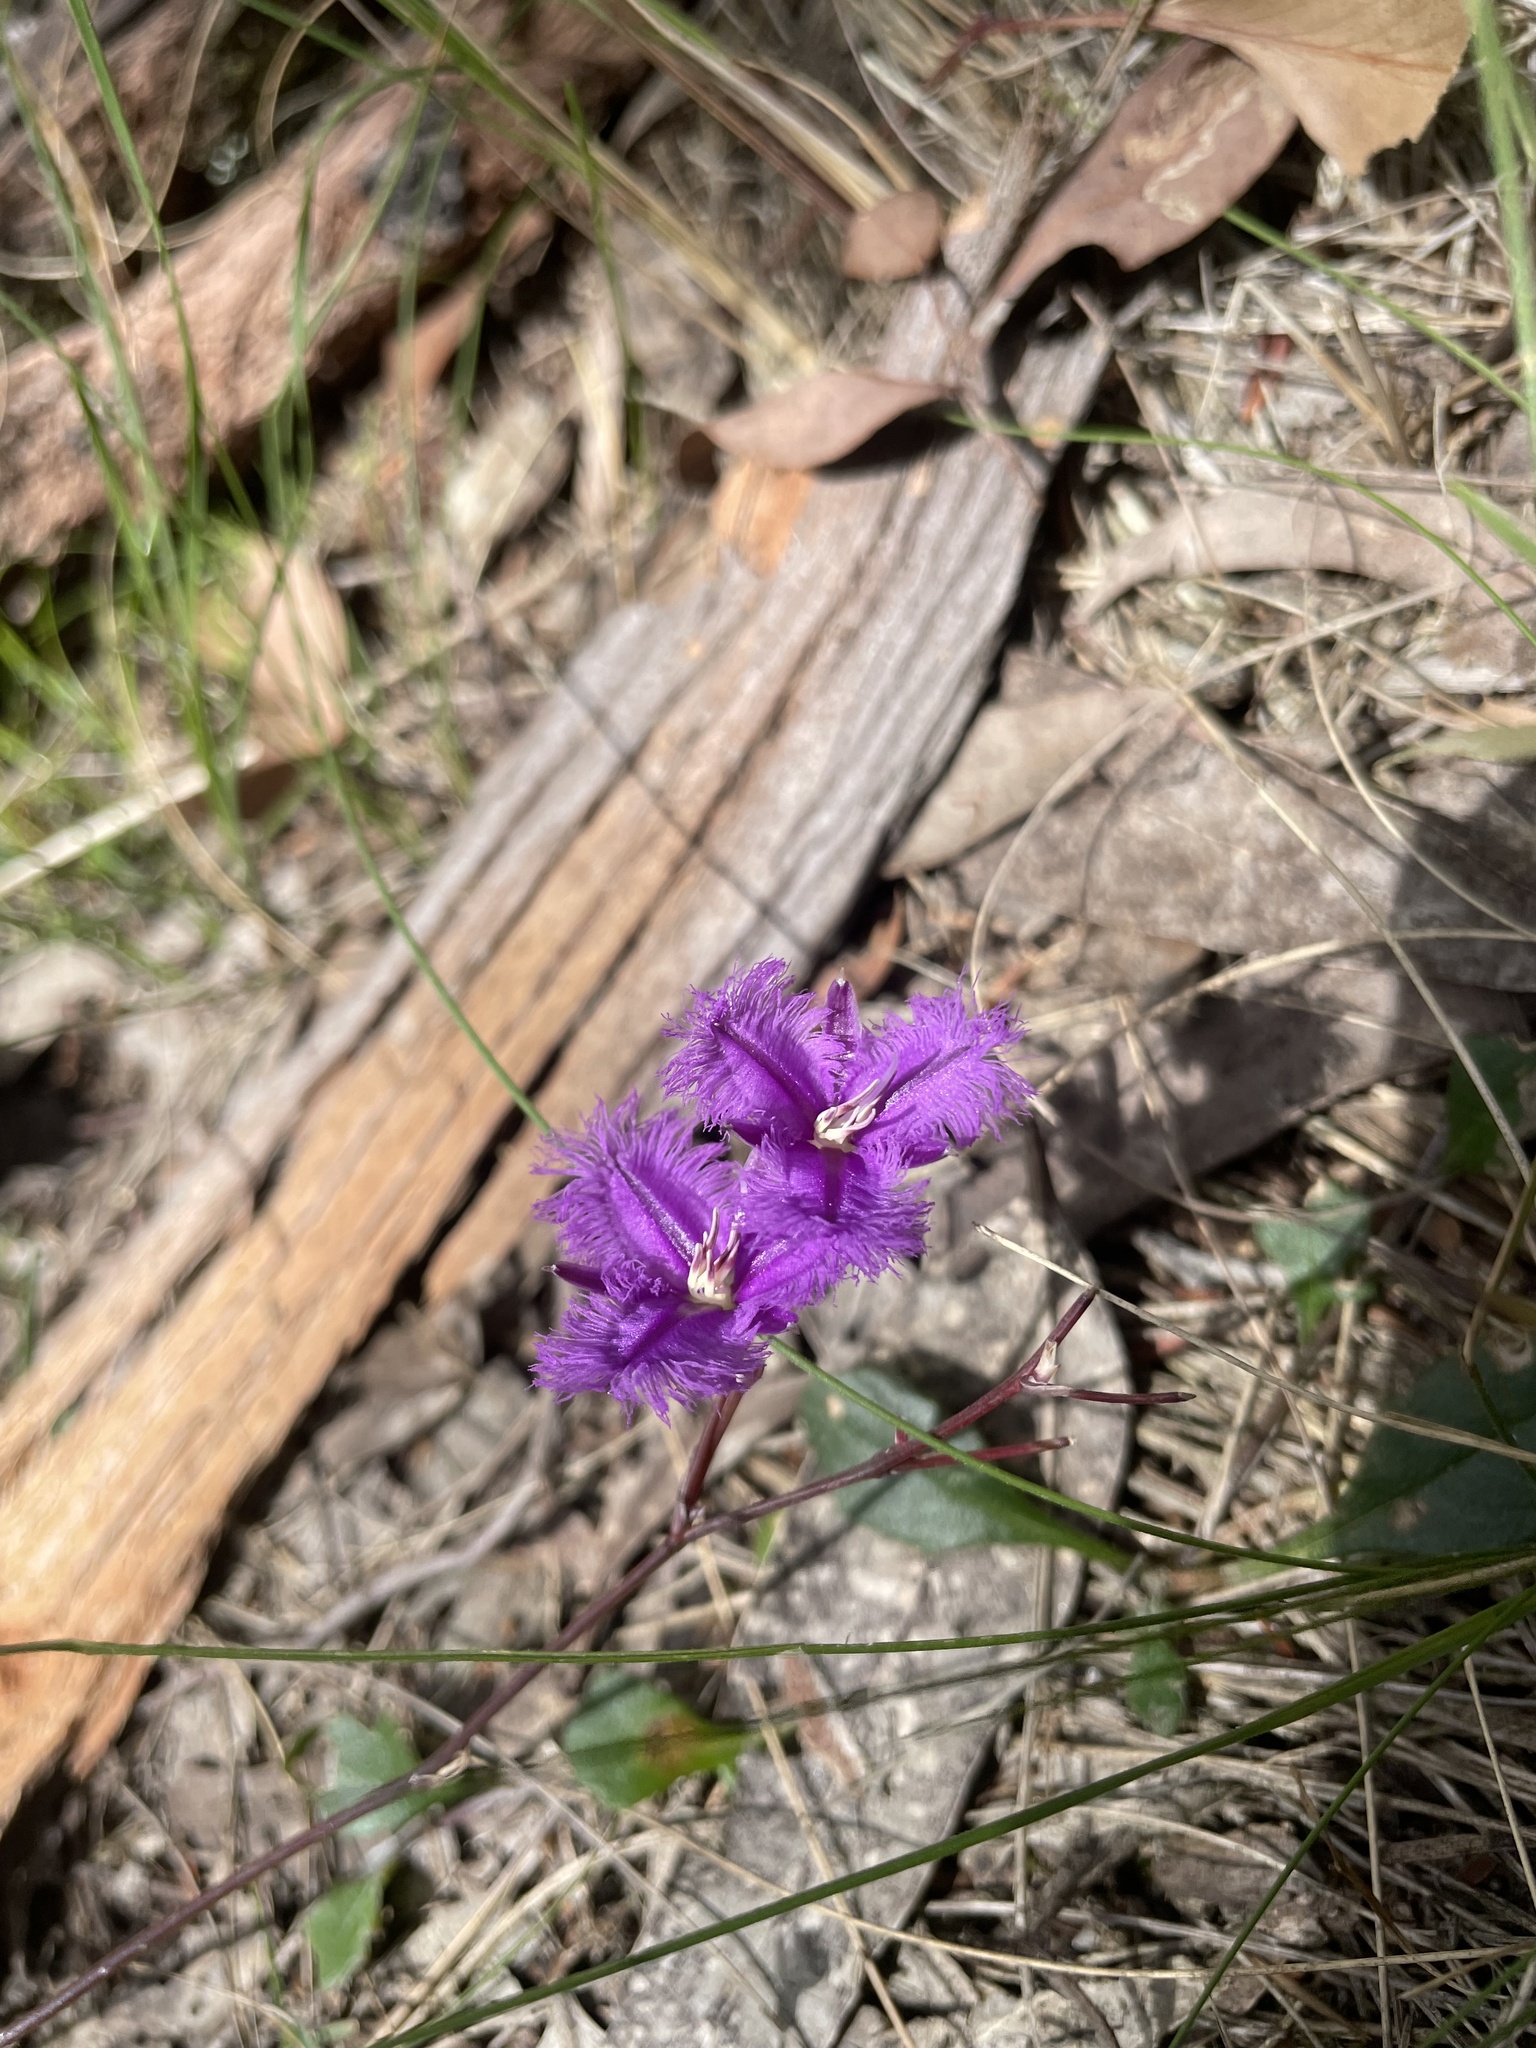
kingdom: Plantae
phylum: Tracheophyta
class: Liliopsida
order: Asparagales
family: Asparagaceae
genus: Thysanotus
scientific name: Thysanotus tuberosus
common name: Common fringed-lily
